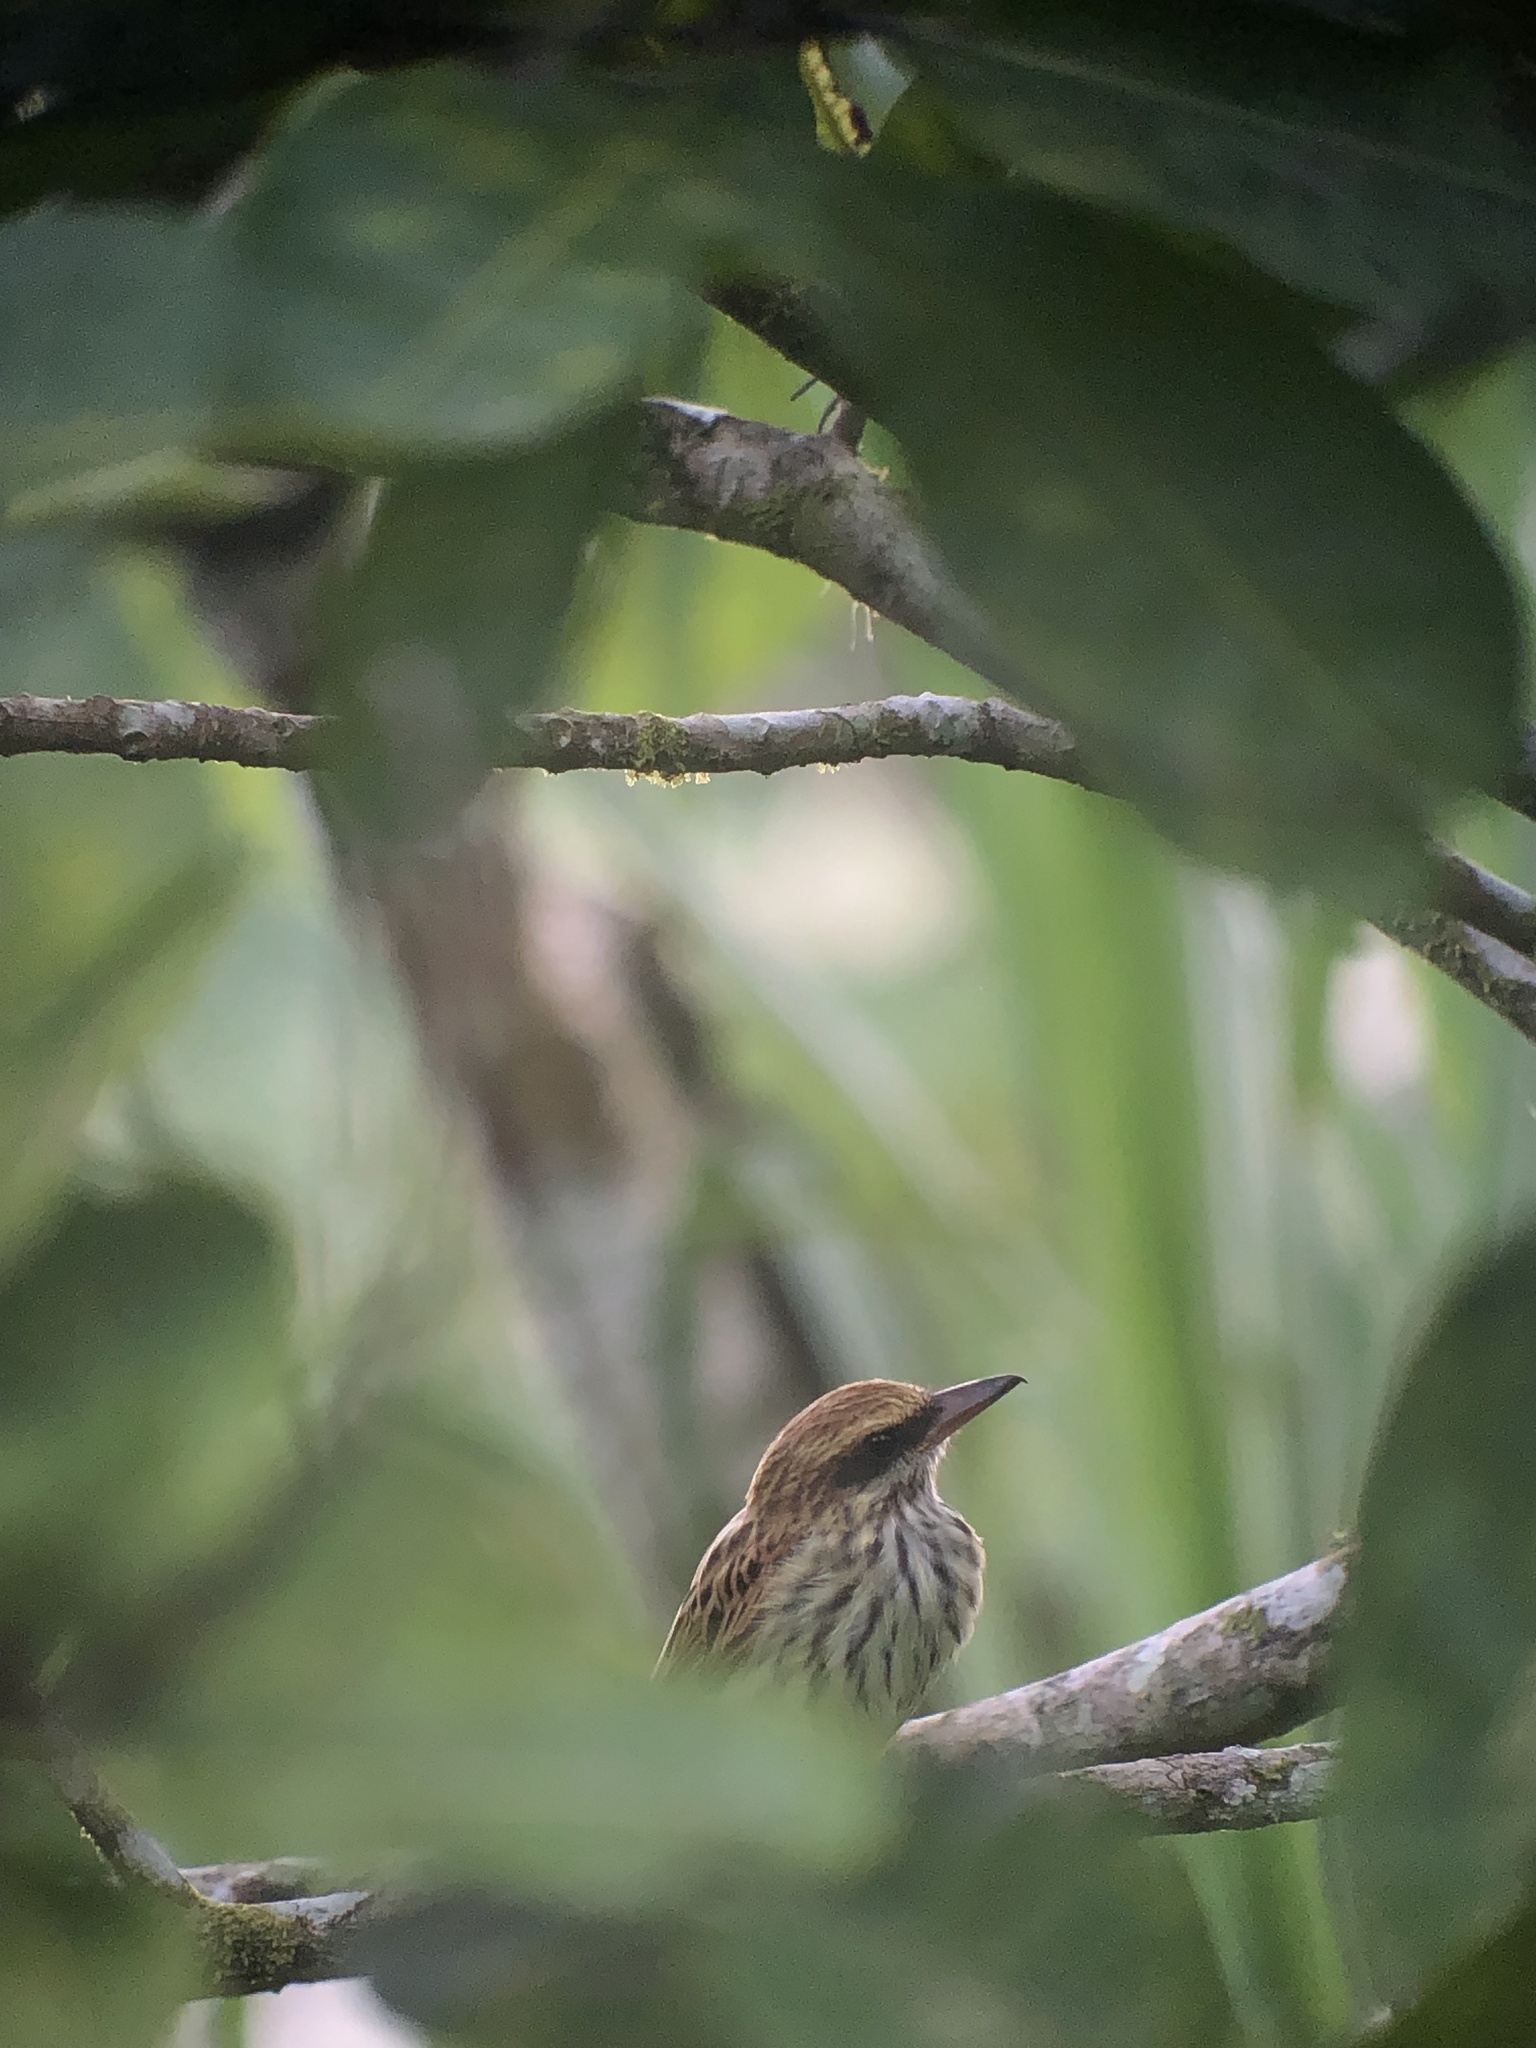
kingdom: Animalia
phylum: Chordata
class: Aves
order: Passeriformes
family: Tyrannidae
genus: Myiodynastes
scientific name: Myiodynastes maculatus
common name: Streaked flycatcher
